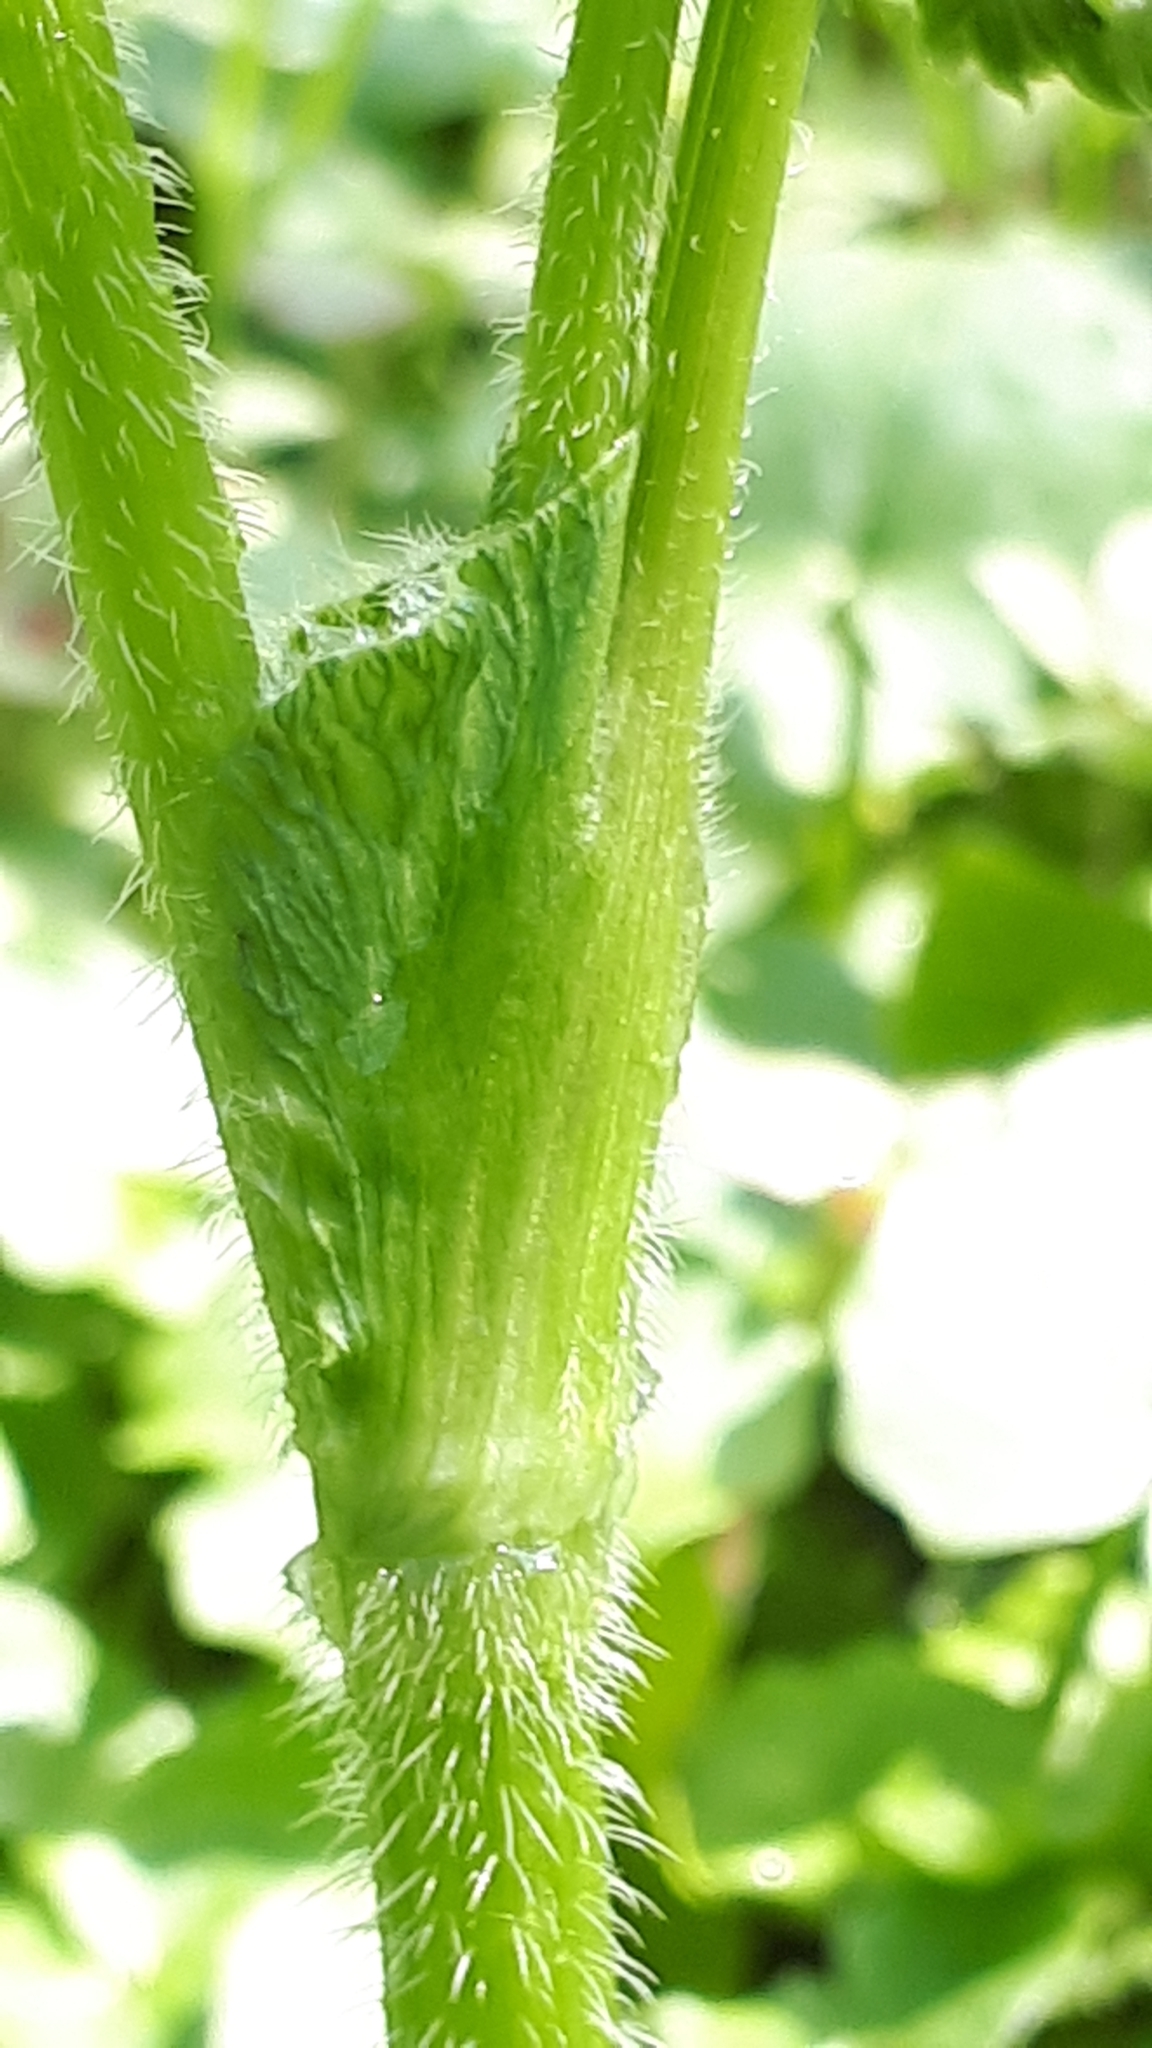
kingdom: Plantae
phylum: Tracheophyta
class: Magnoliopsida
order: Apiales
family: Apiaceae
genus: Chaerophyllum
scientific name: Chaerophyllum hirsutum
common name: Hairy chervil
